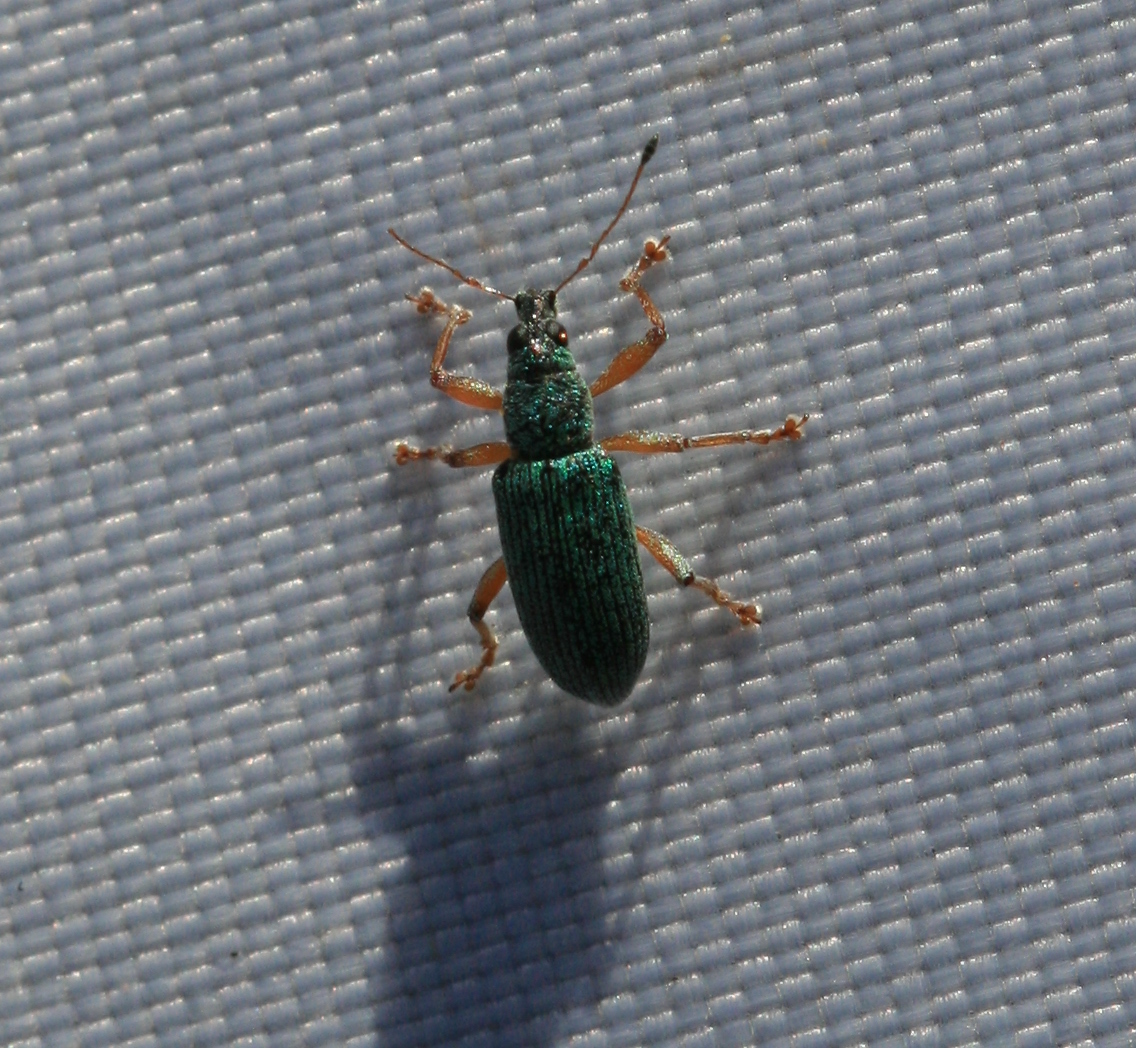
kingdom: Animalia
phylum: Arthropoda
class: Insecta
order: Coleoptera
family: Curculionidae
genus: Polydrusus
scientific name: Polydrusus formosus
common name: Weevil
